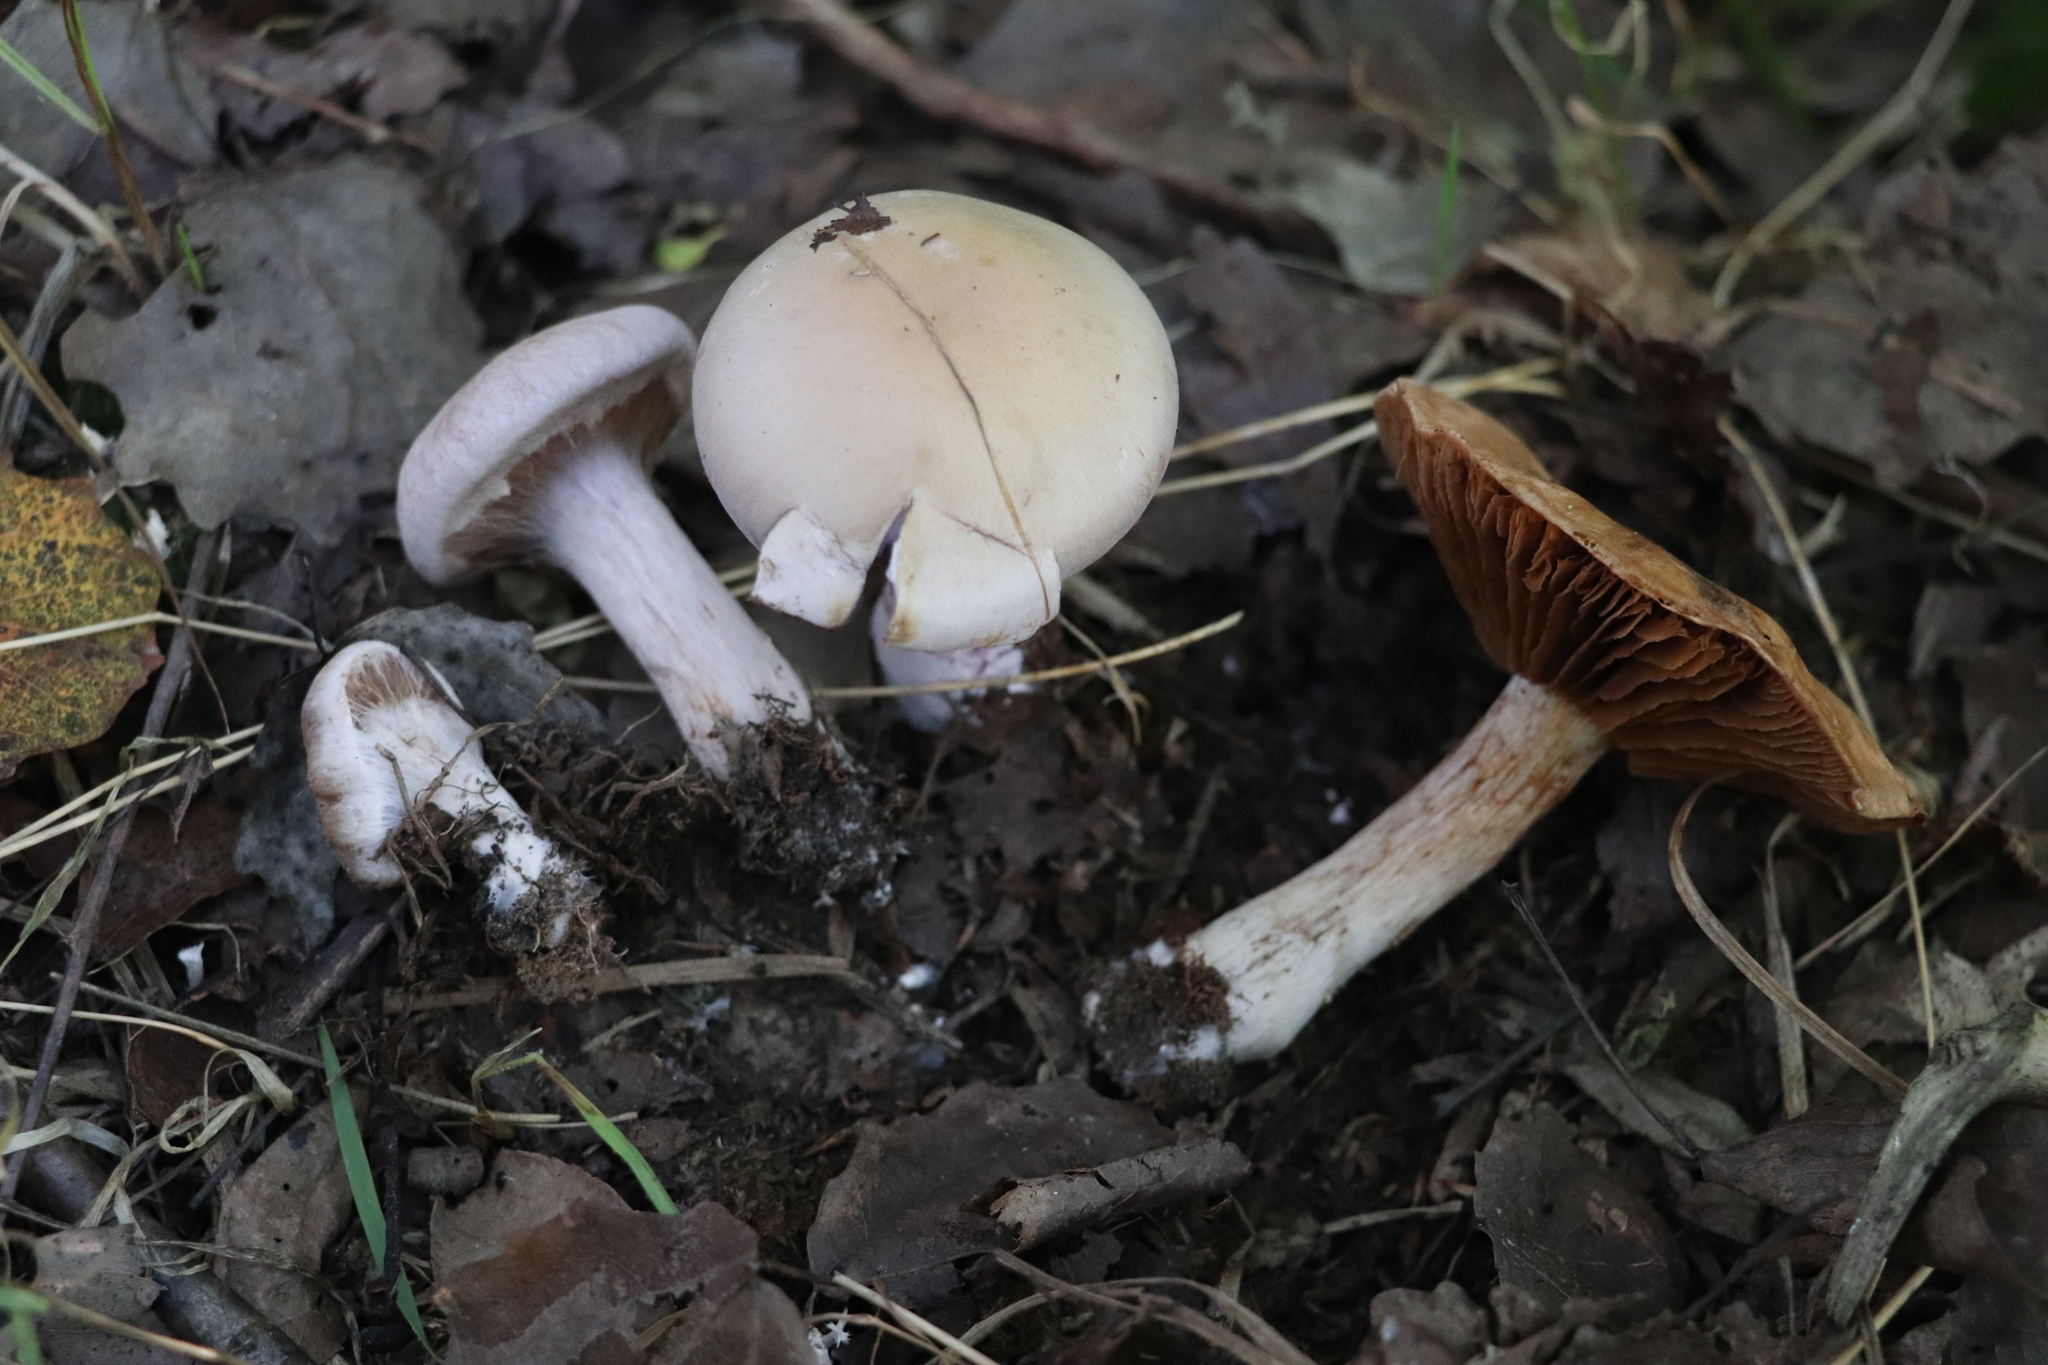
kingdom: Fungi
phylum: Basidiomycota
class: Agaricomycetes
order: Agaricales
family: Cortinariaceae
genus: Thaxterogaster
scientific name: Thaxterogaster porphyropus
